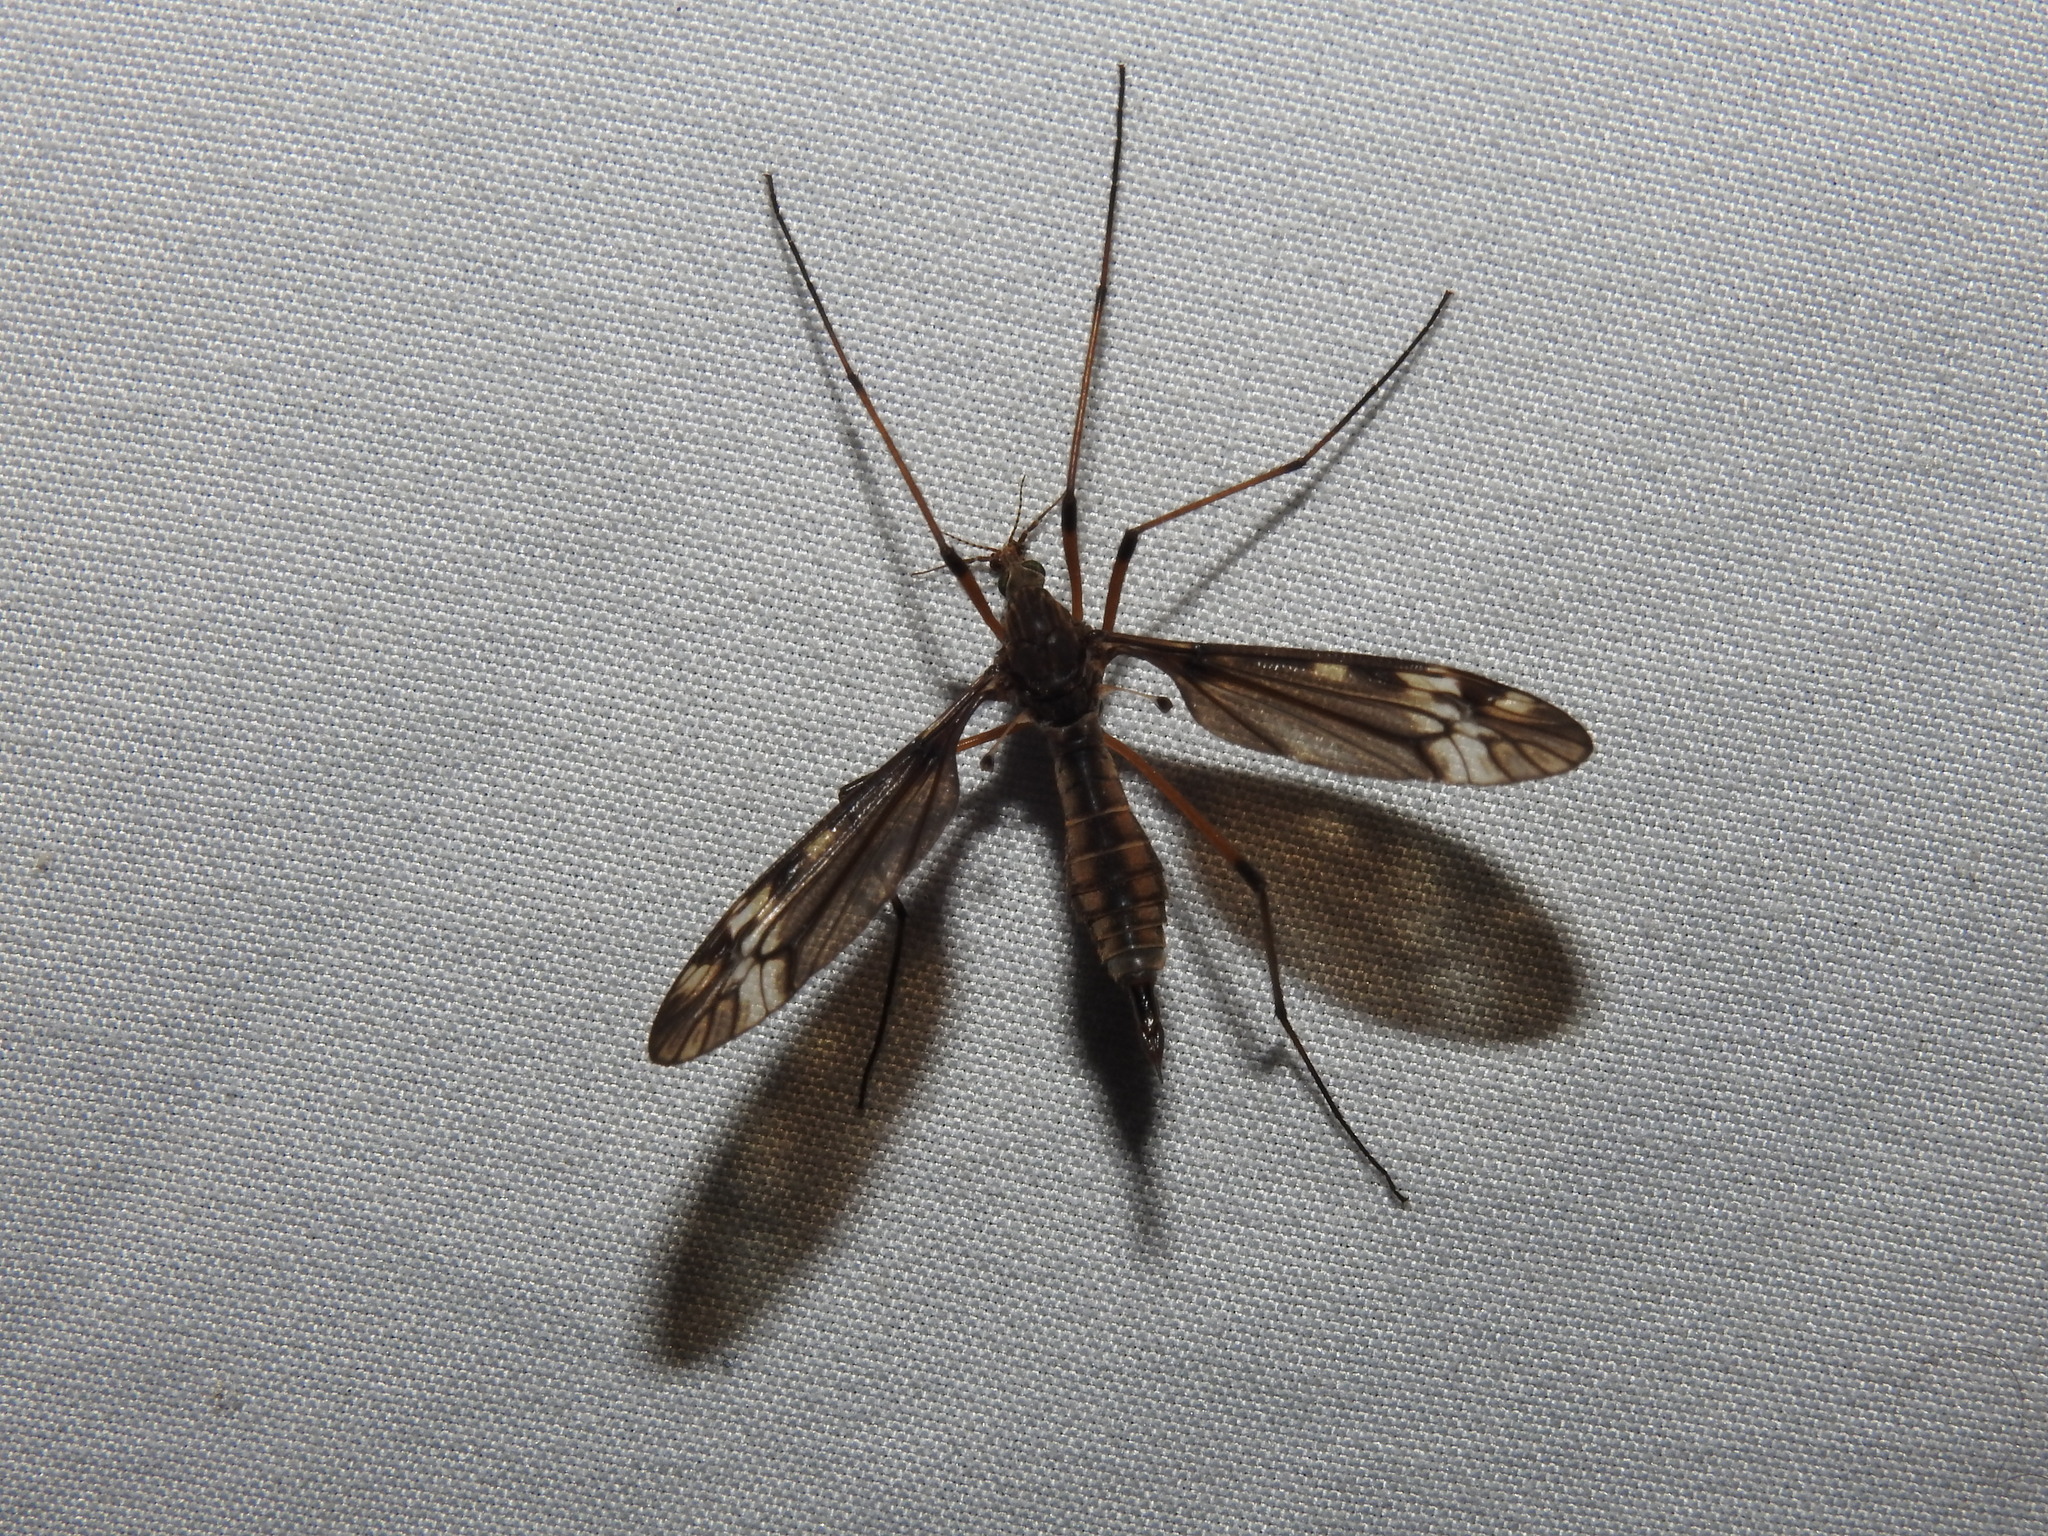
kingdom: Animalia
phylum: Arthropoda
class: Insecta
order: Diptera
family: Tipulidae
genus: Tipula
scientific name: Tipula fuliginosa
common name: Sooty crane fly
